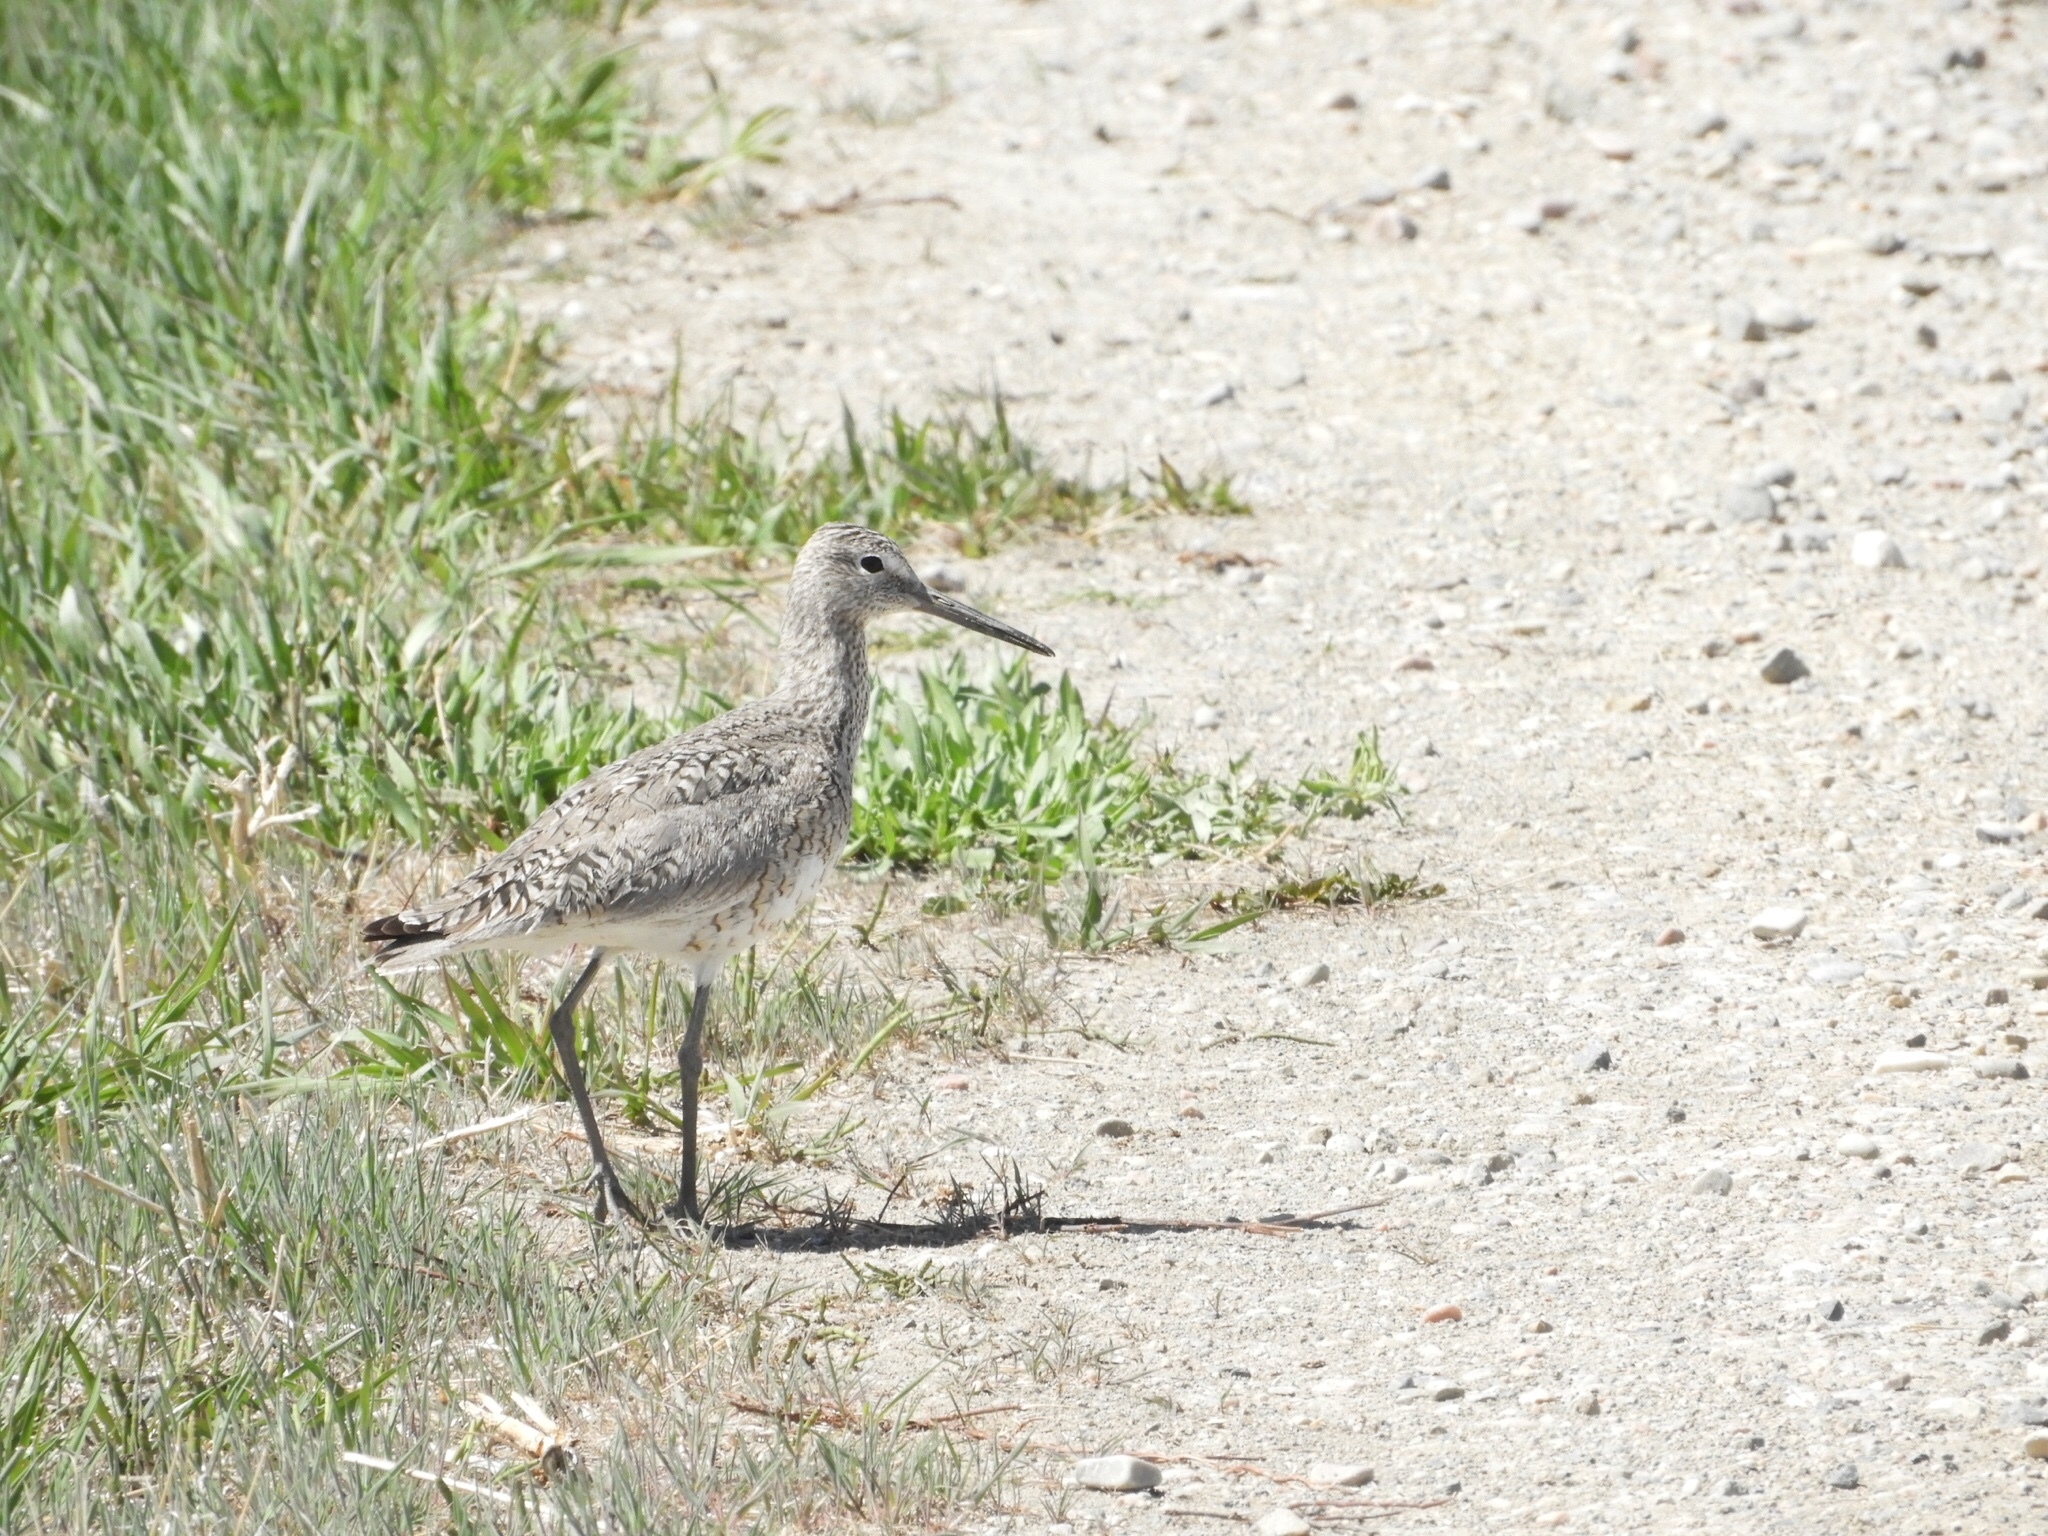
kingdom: Animalia
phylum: Chordata
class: Aves
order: Charadriiformes
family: Scolopacidae
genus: Tringa
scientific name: Tringa semipalmata
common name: Willet
